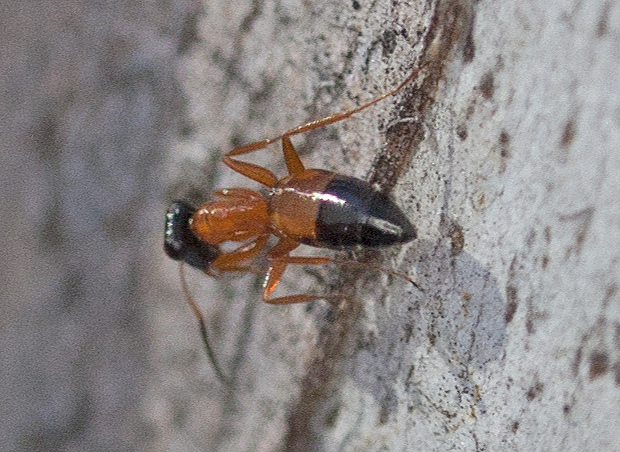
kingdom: Animalia
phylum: Arthropoda
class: Insecta
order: Hymenoptera
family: Formicidae
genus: Opisthopsis
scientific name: Opisthopsis rufithorax
